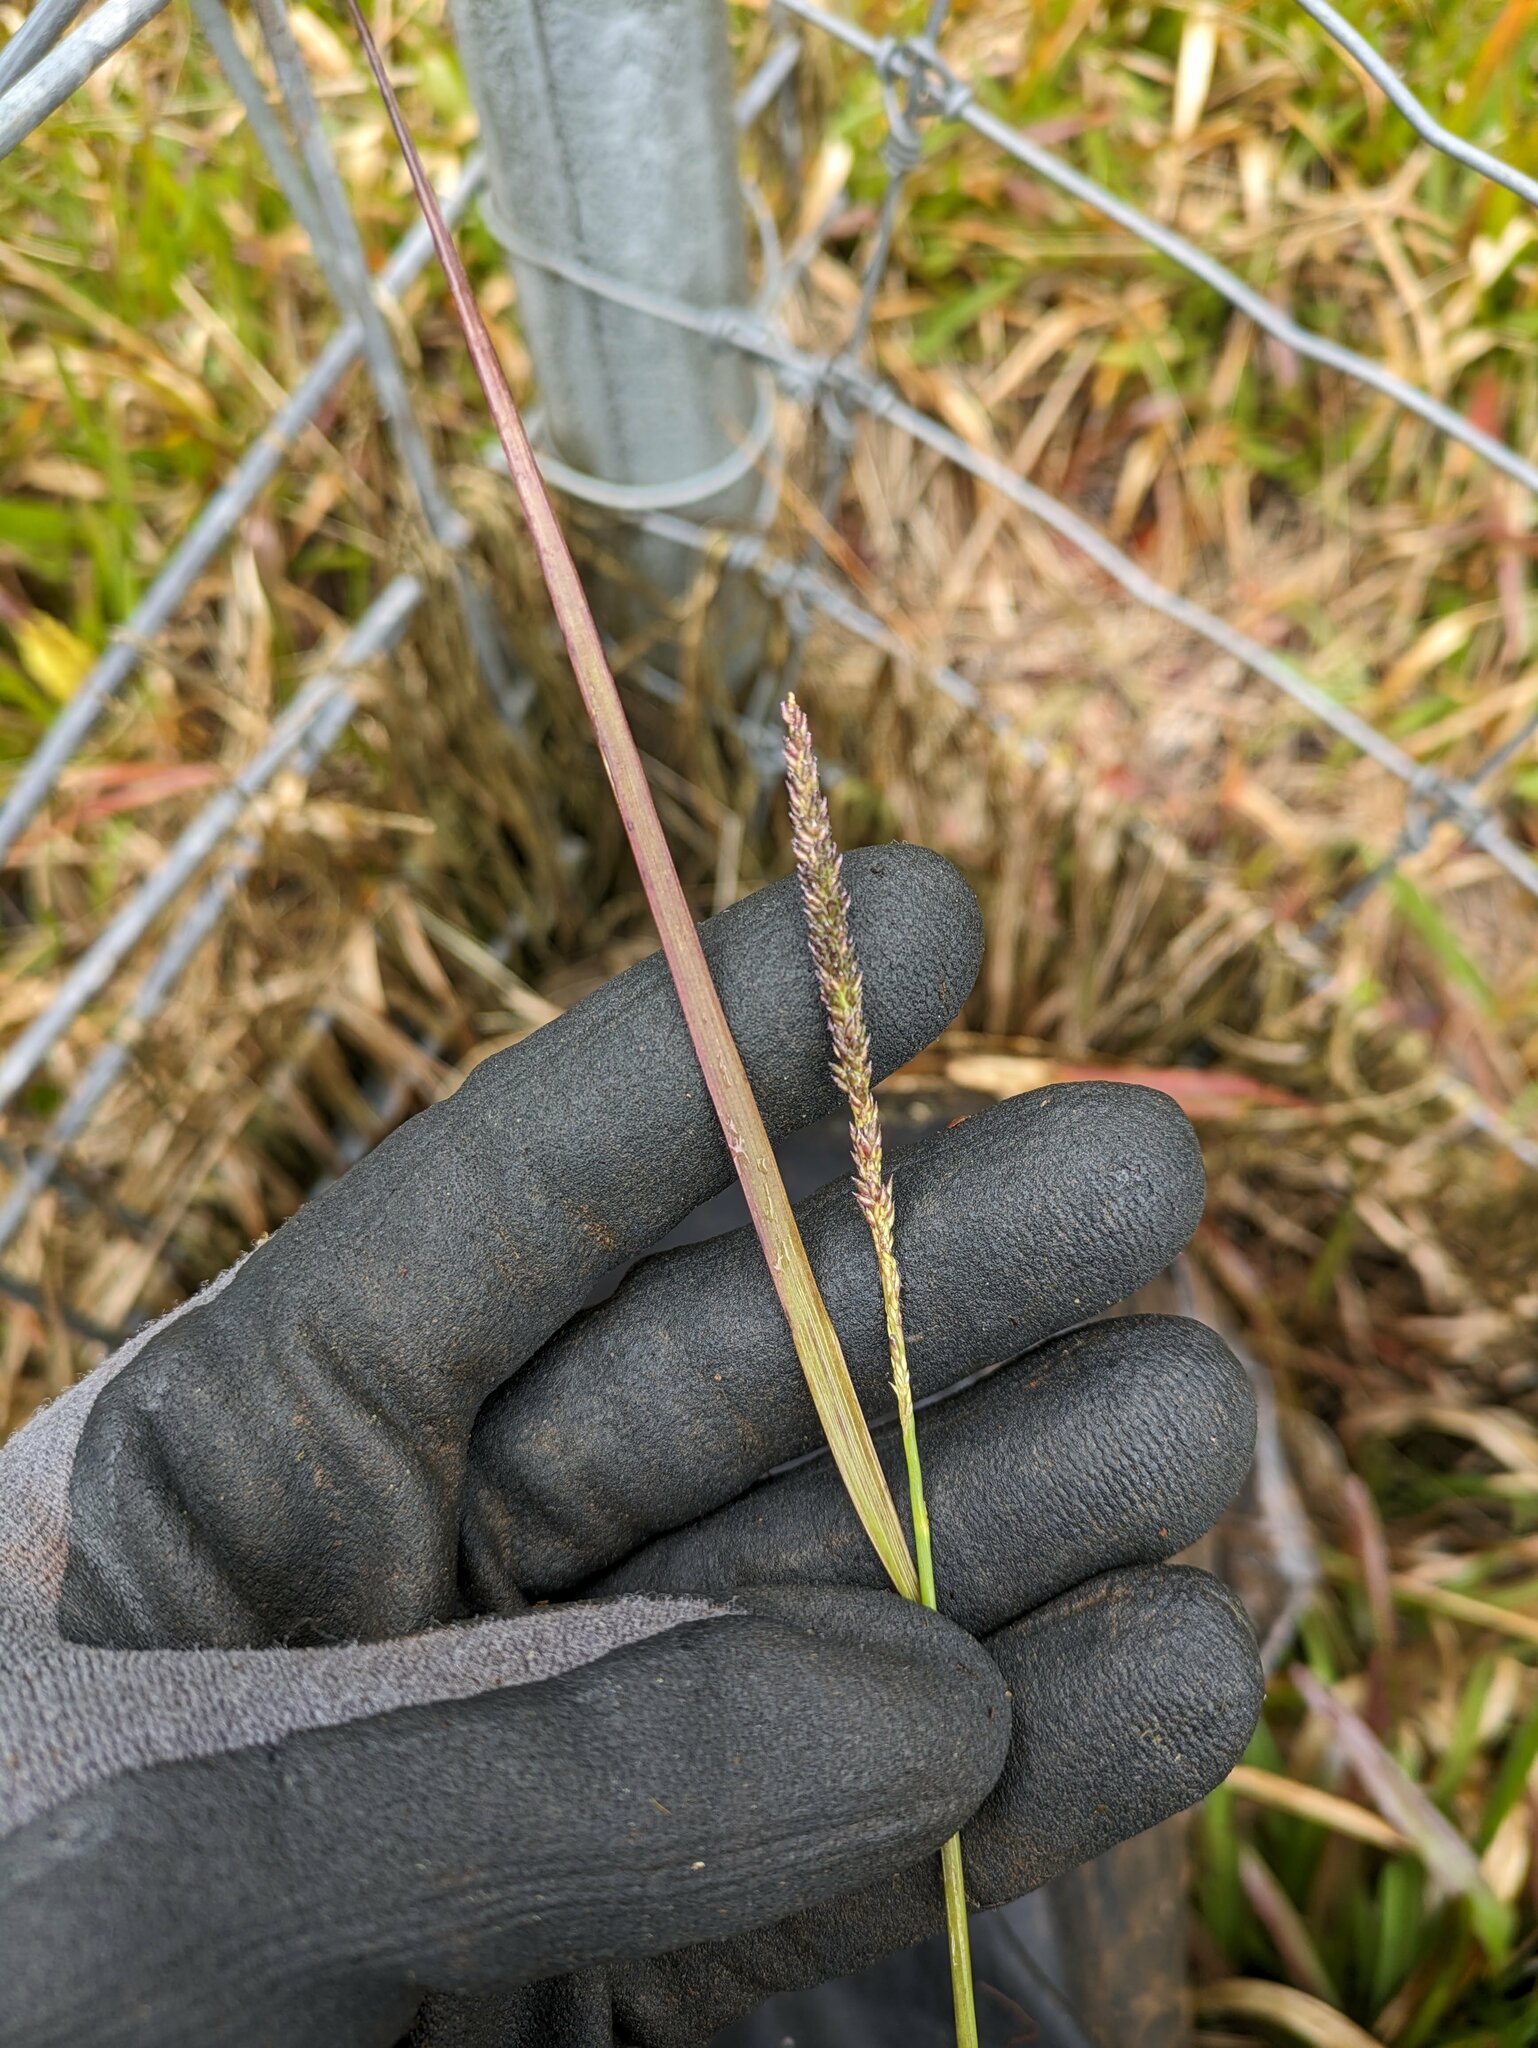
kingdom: Plantae
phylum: Tracheophyta
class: Liliopsida
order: Poales
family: Poaceae
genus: Sacciolepis
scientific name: Sacciolepis indica
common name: Glenwoodgrass
